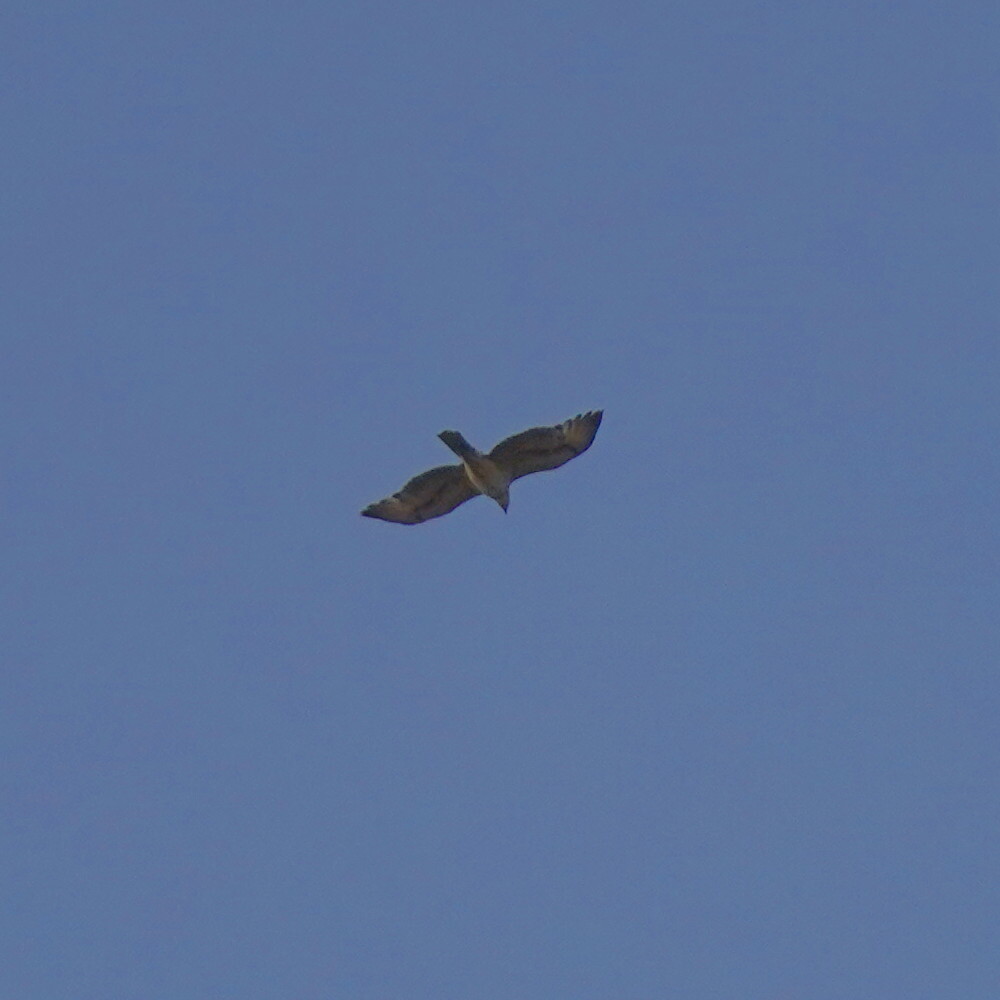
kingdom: Animalia
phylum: Chordata
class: Aves
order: Accipitriformes
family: Accipitridae
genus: Aquila
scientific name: Aquila spilogaster
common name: African hawk-eagle
